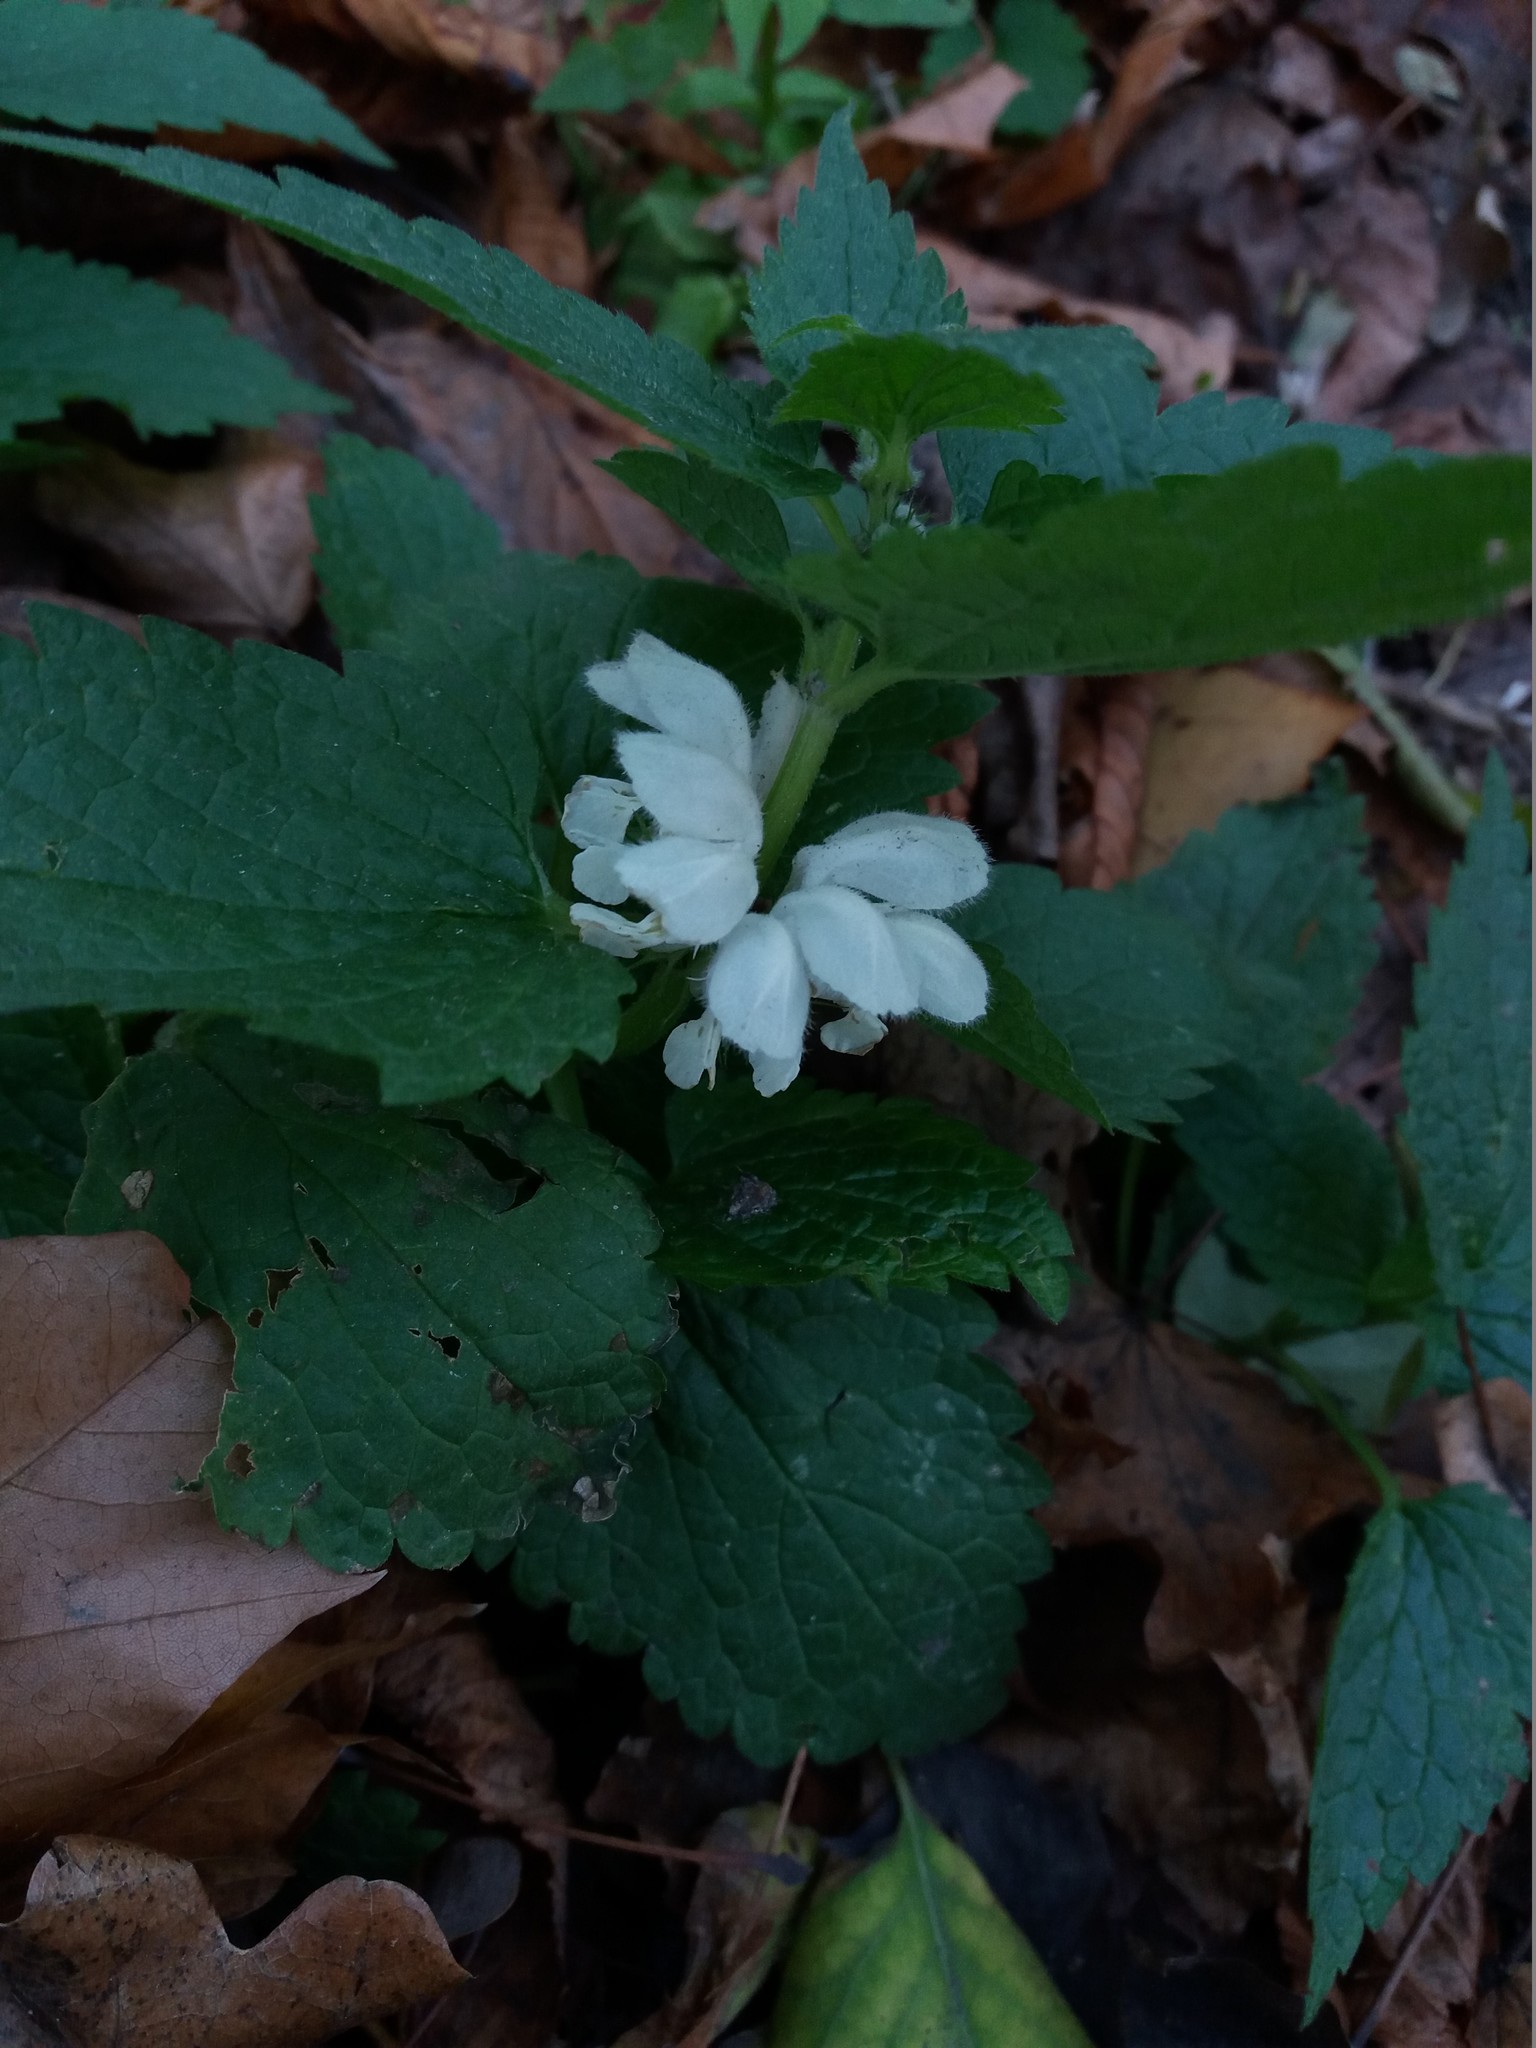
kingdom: Plantae
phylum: Tracheophyta
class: Magnoliopsida
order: Lamiales
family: Lamiaceae
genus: Lamium
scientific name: Lamium album
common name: White dead-nettle
